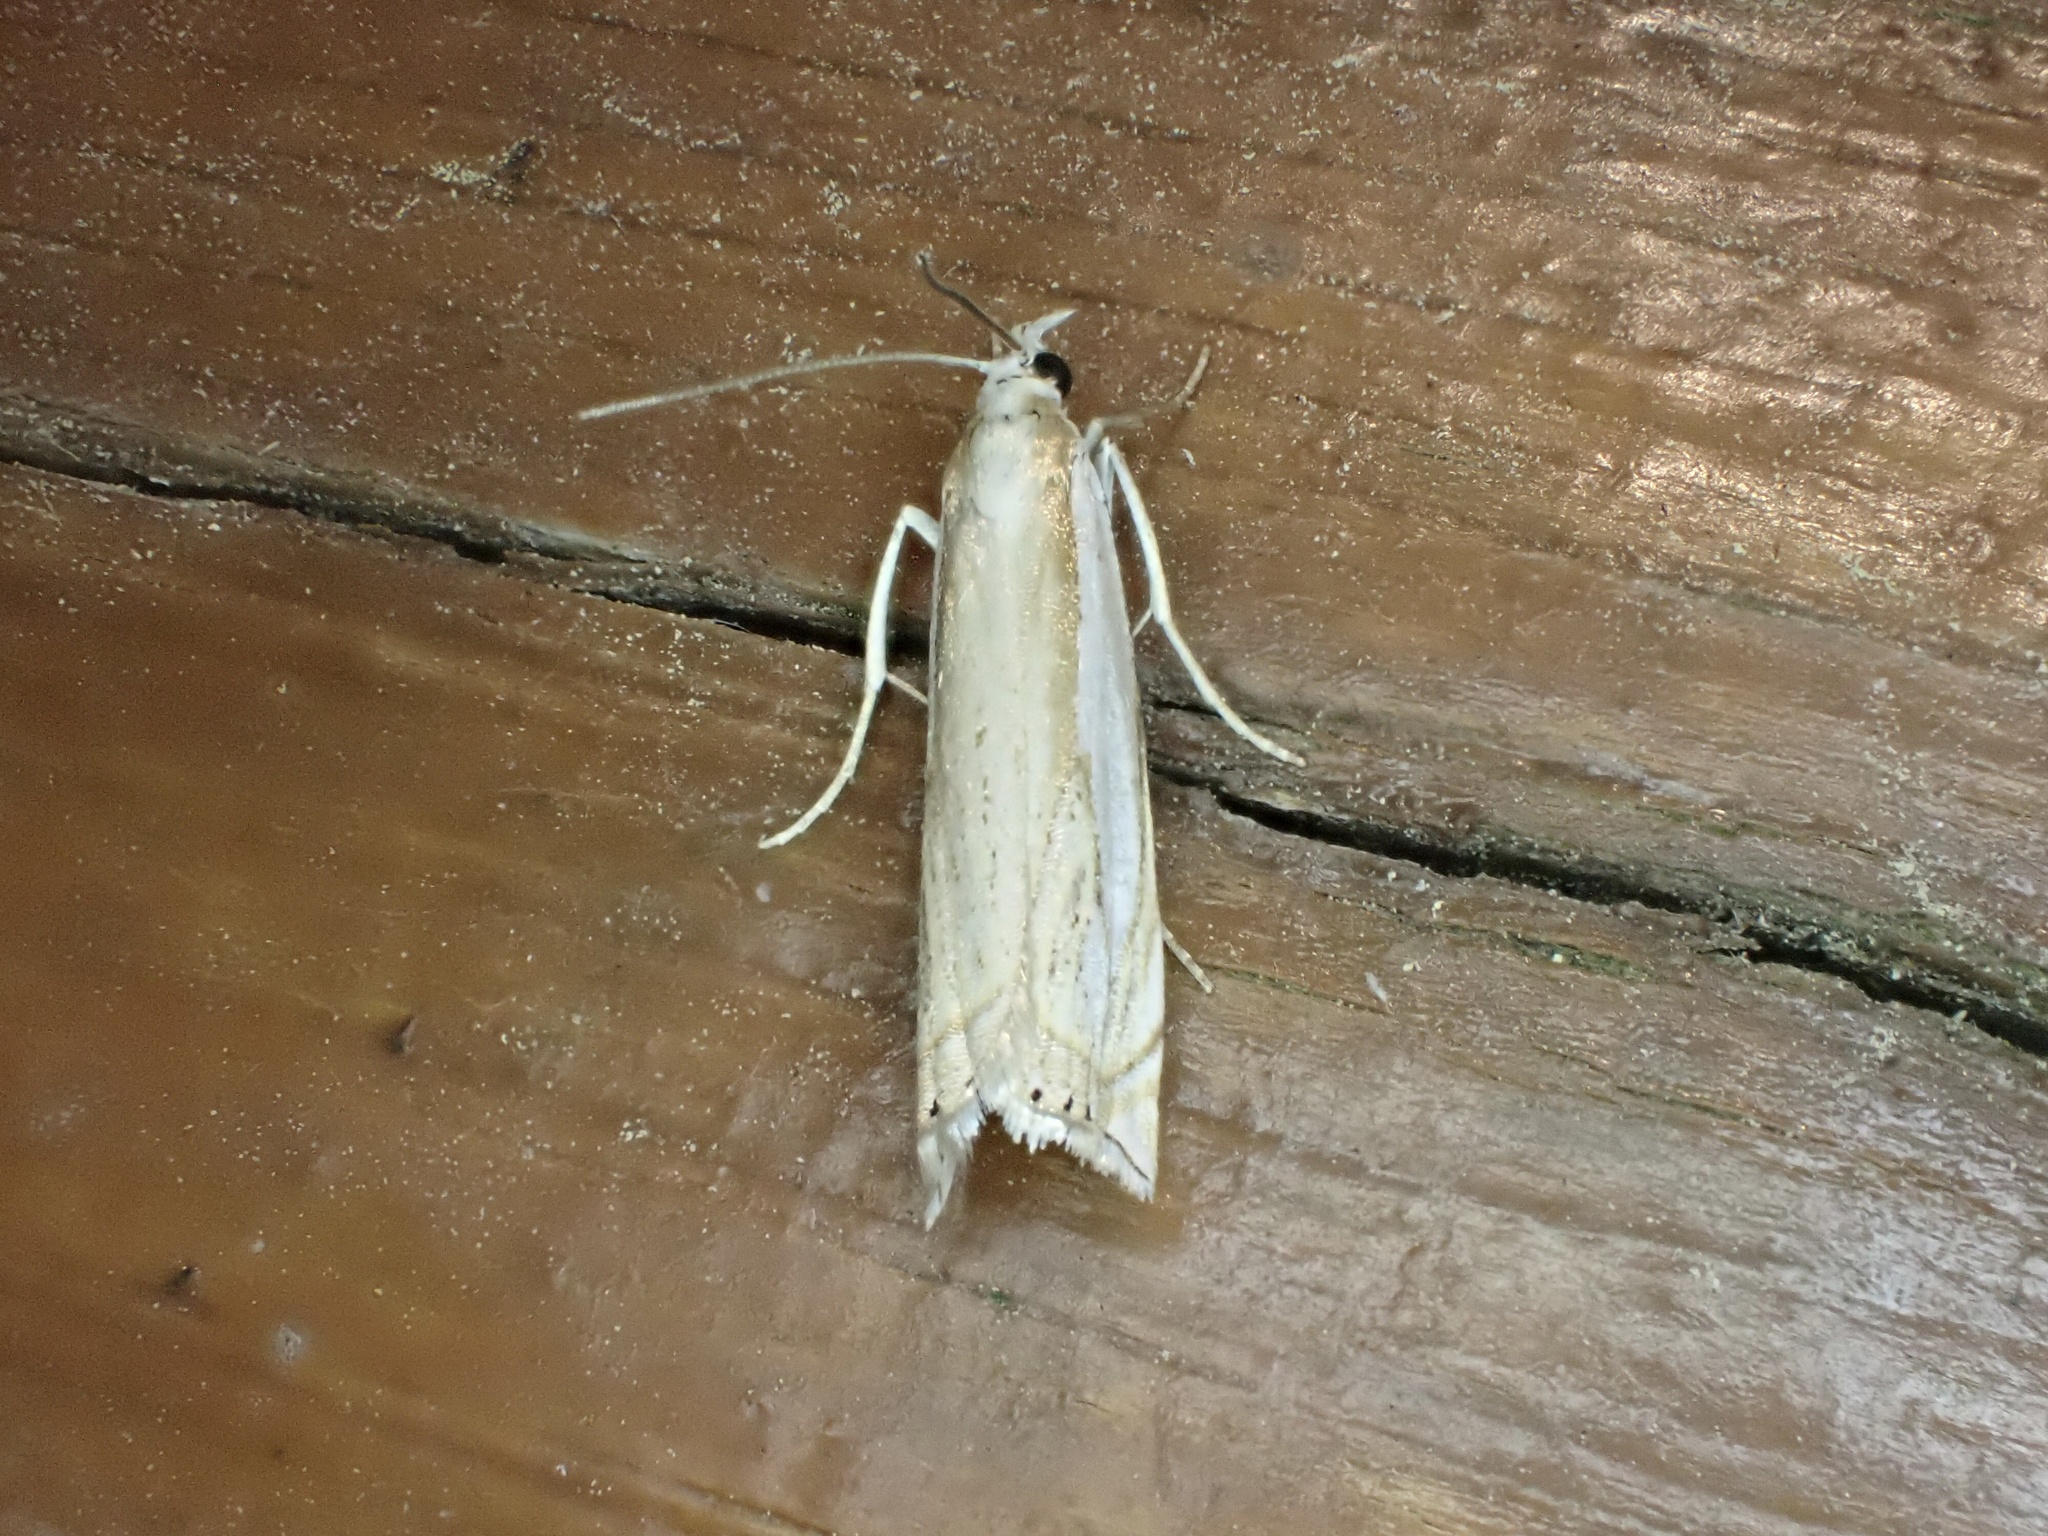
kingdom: Animalia
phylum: Arthropoda
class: Insecta
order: Lepidoptera
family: Crambidae
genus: Crambus
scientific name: Crambus pascuella
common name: Inlaid grass-veneer
